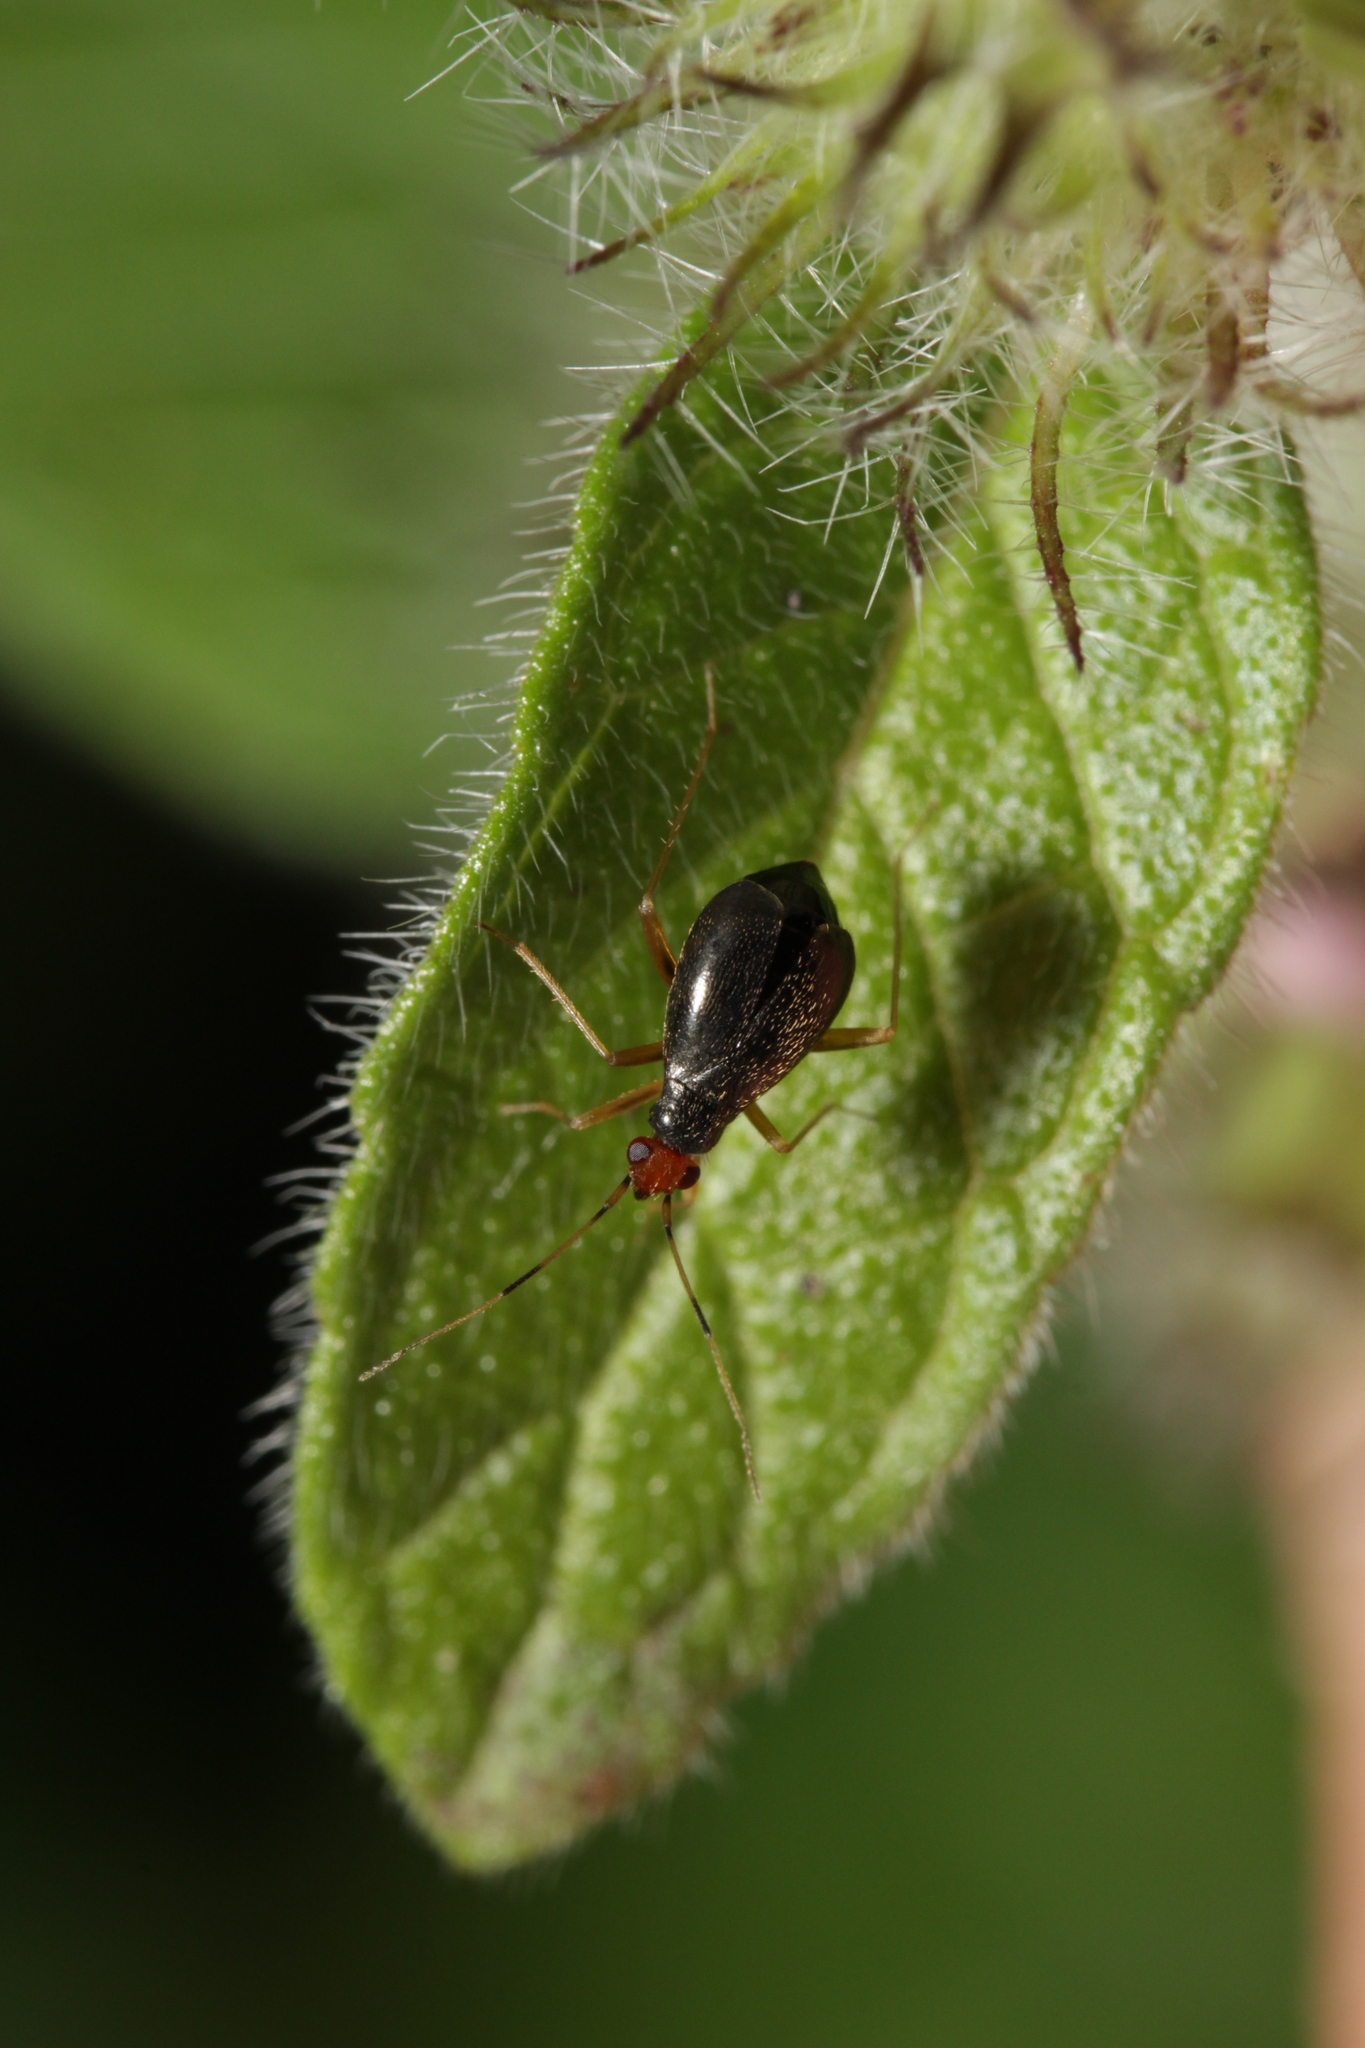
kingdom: Animalia
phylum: Arthropoda
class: Insecta
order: Hemiptera
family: Miridae
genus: Orthonotus
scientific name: Orthonotus rufifrons
